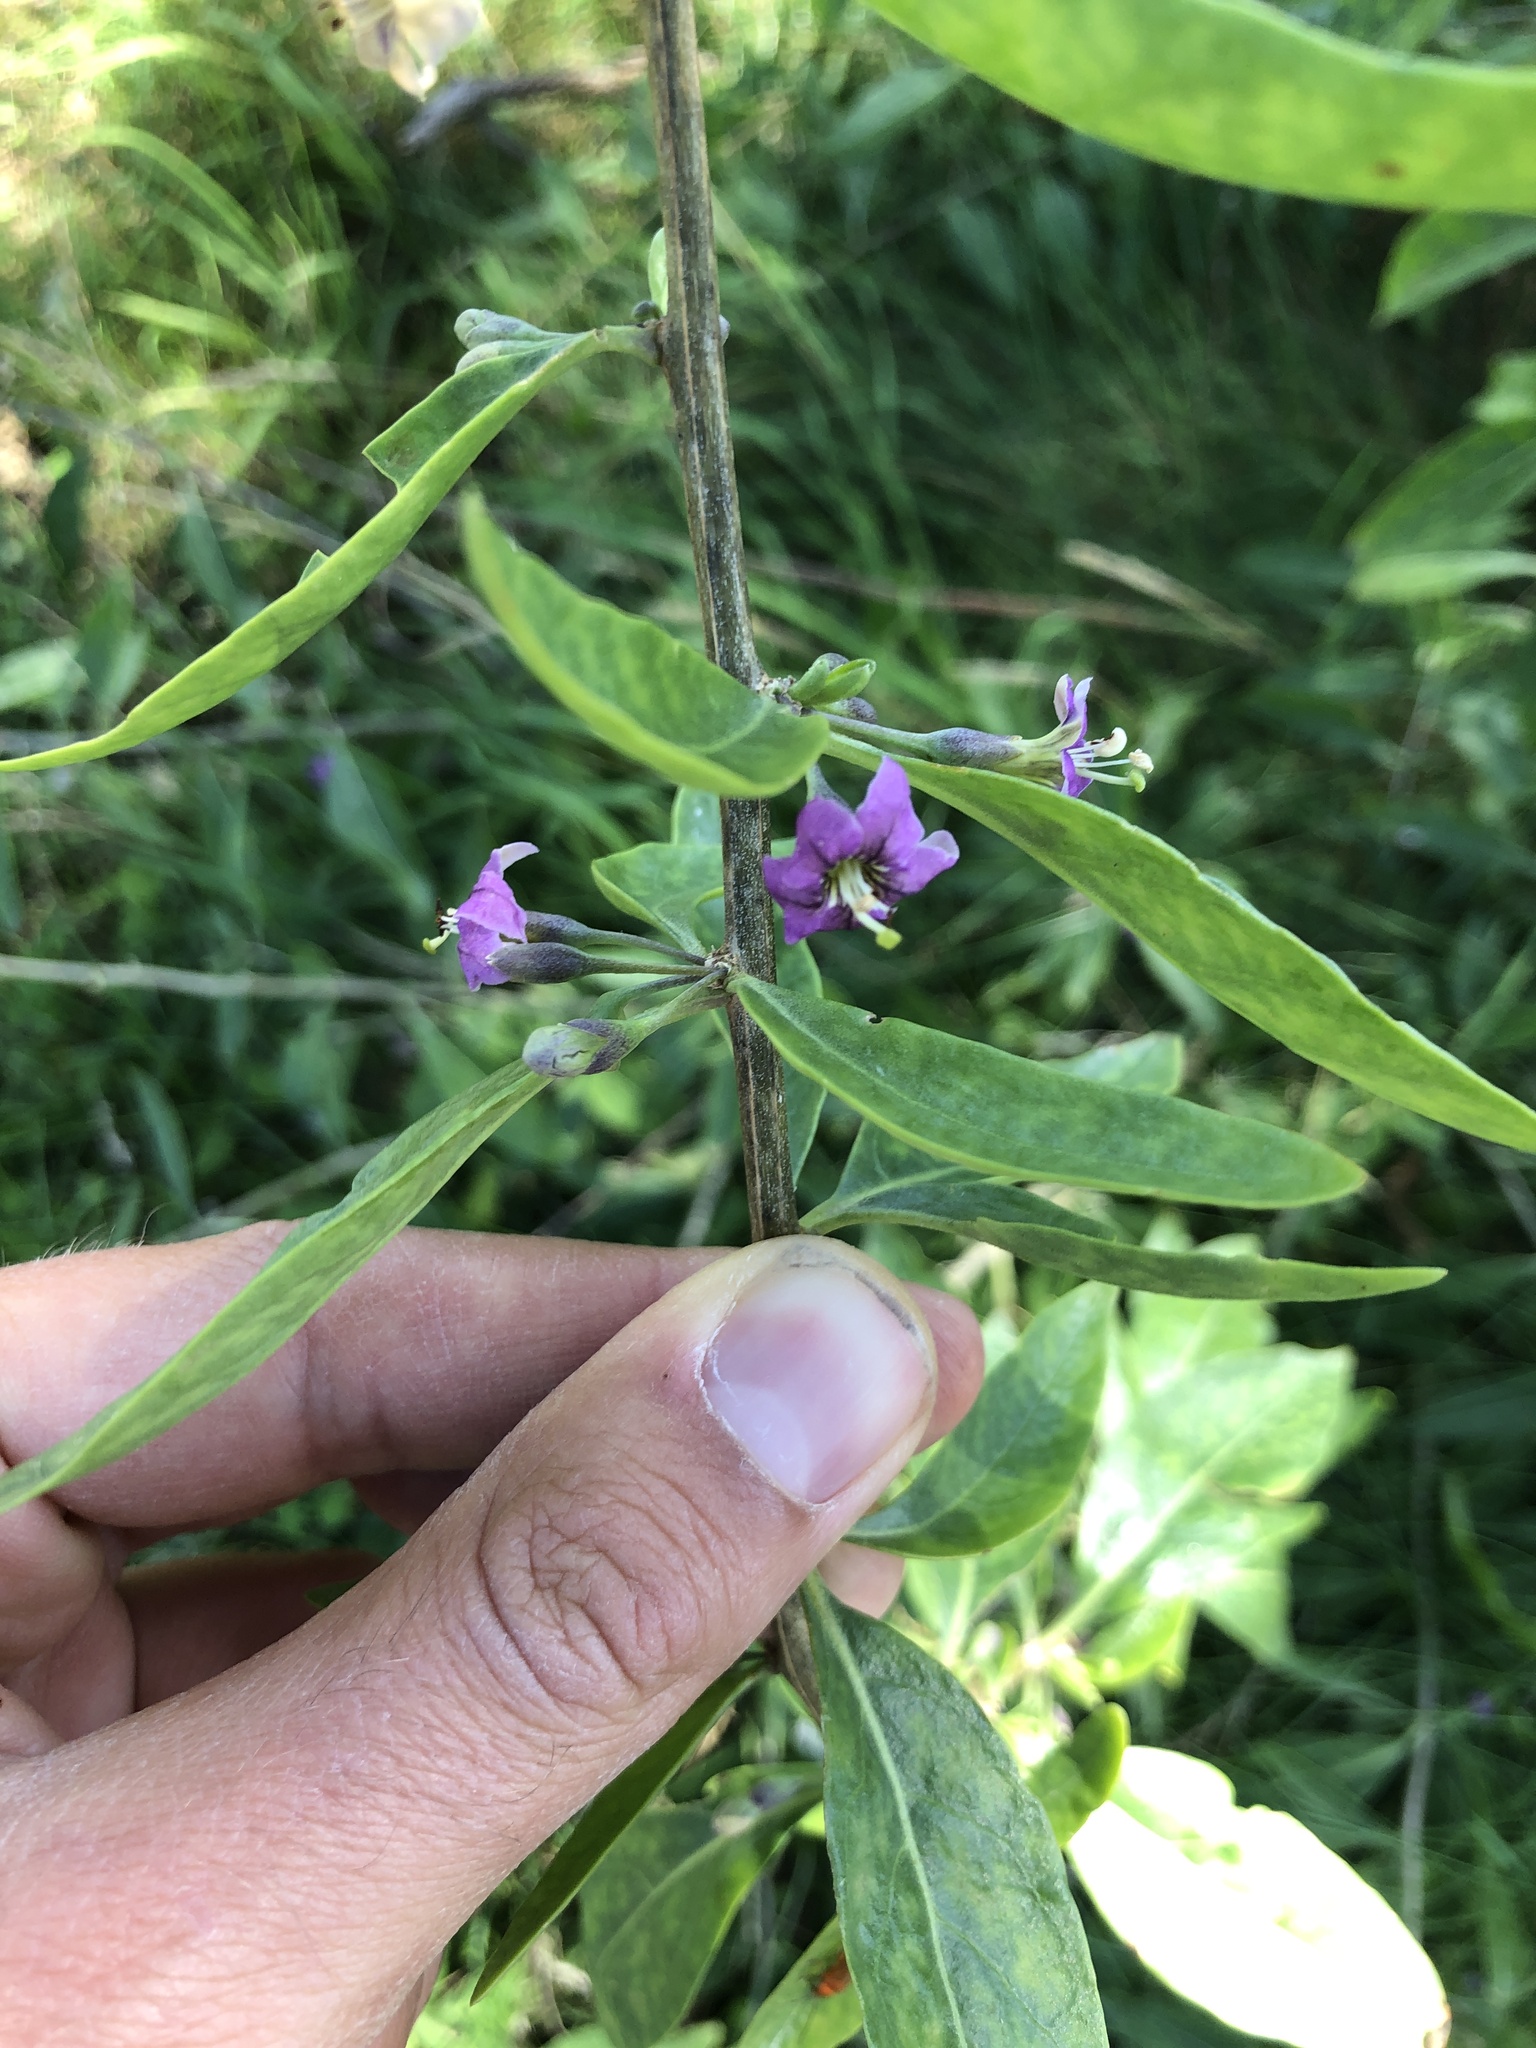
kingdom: Plantae
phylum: Tracheophyta
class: Magnoliopsida
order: Solanales
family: Solanaceae
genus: Lycium
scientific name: Lycium barbarum
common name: Duke of argyll's teaplant
